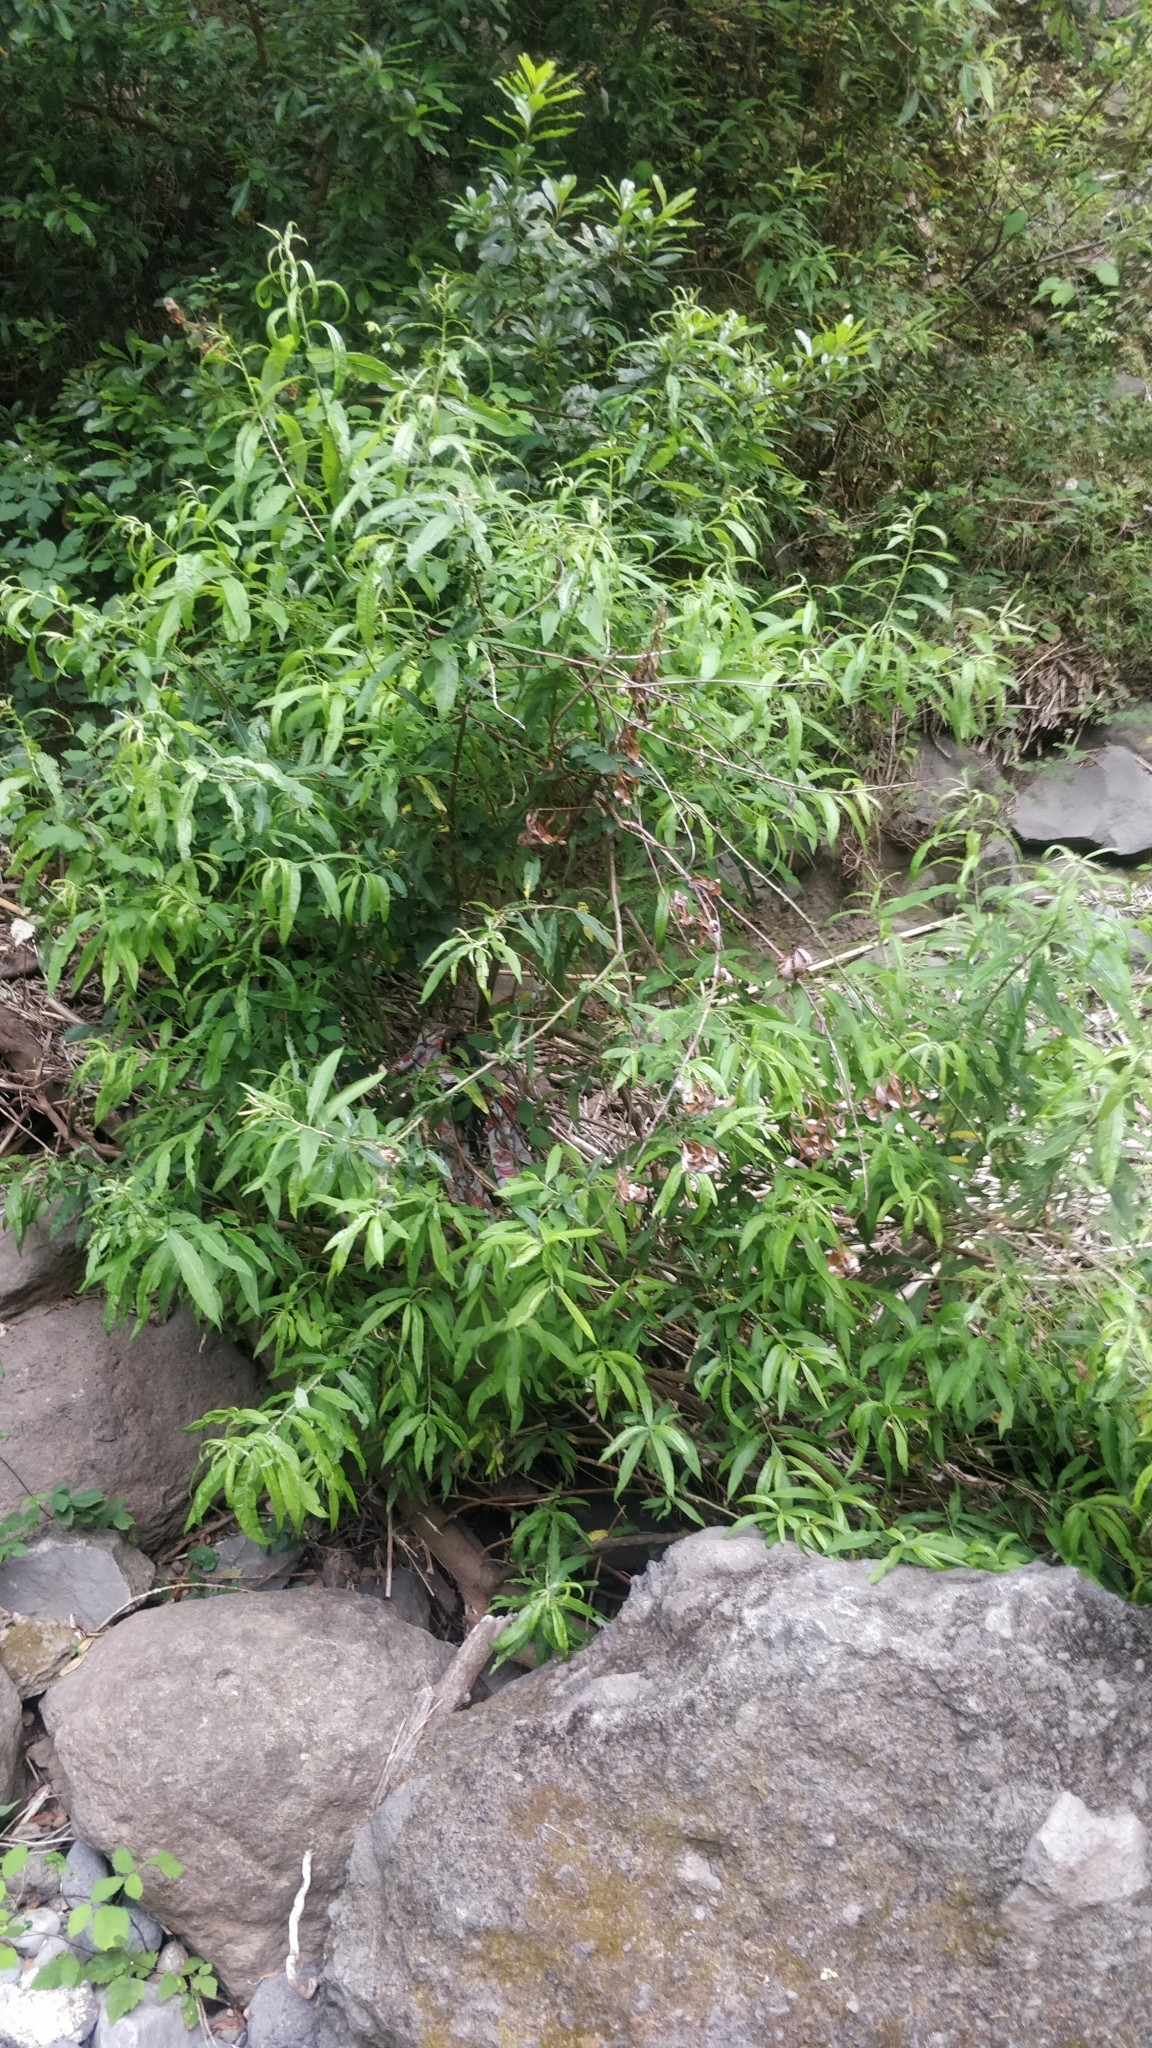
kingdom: Plantae
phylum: Tracheophyta
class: Magnoliopsida
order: Malpighiales
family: Salicaceae
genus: Salix
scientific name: Salix canariensis
